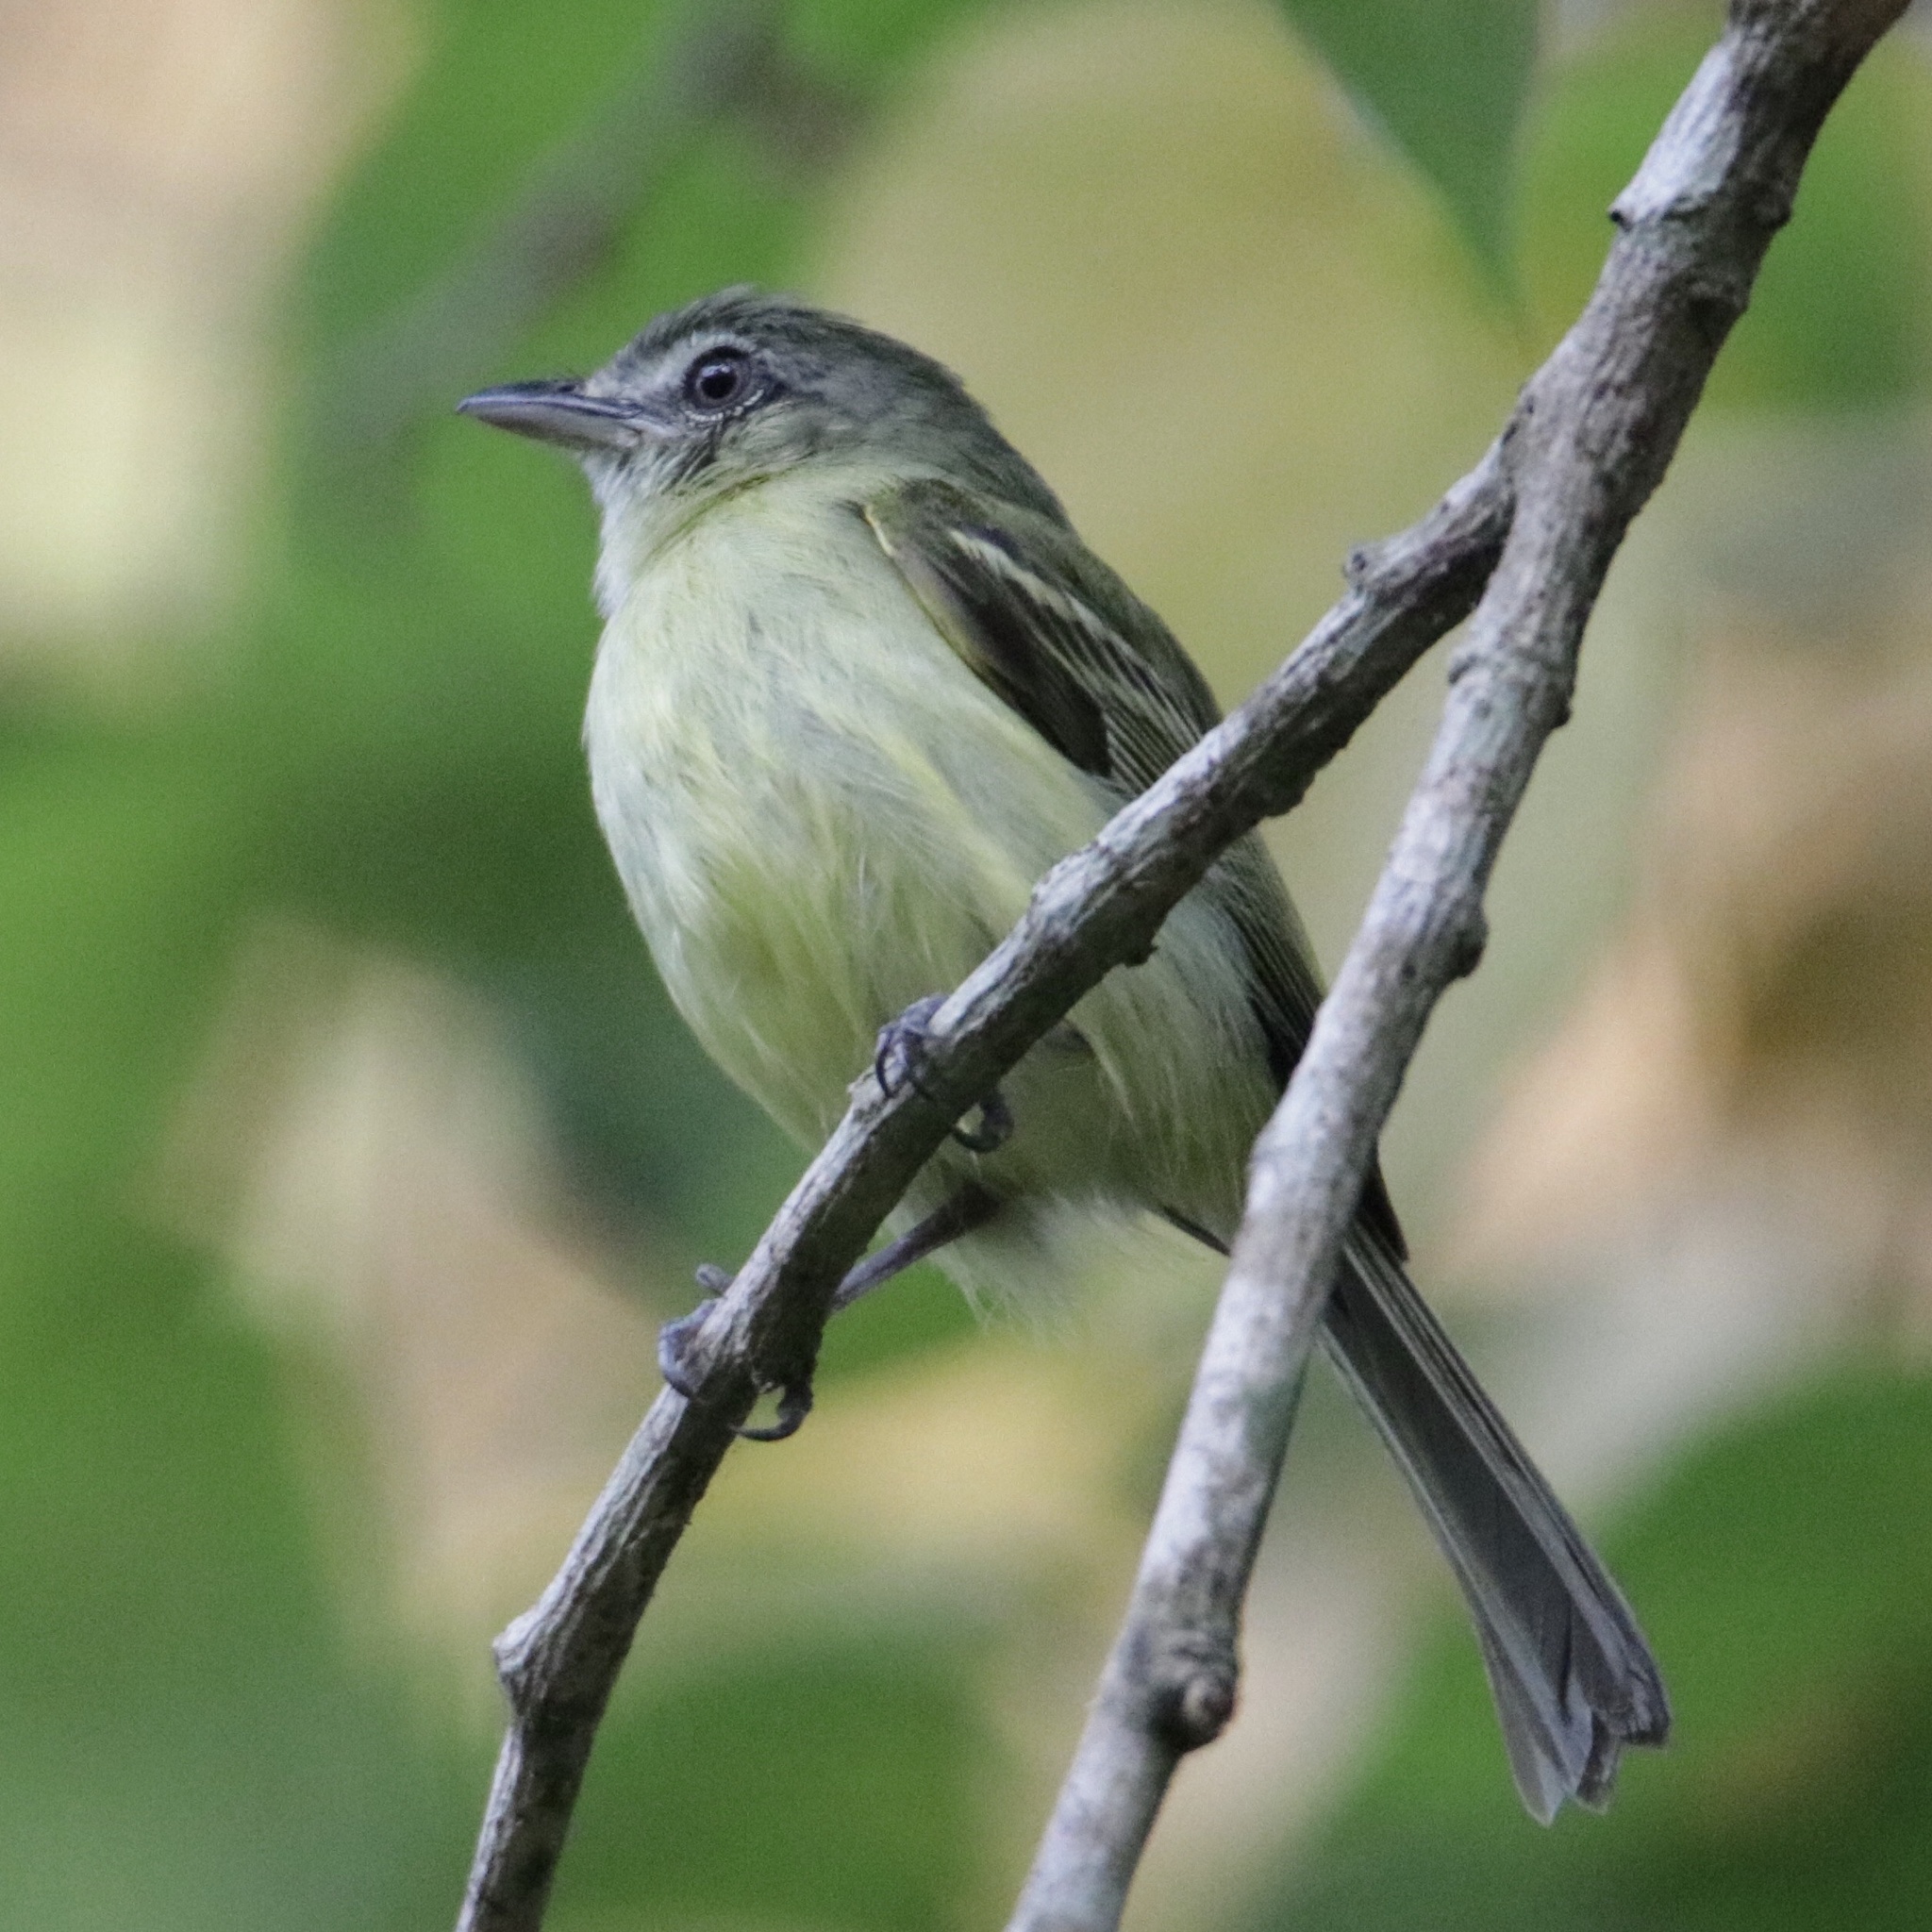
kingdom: Animalia
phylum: Chordata
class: Aves
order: Passeriformes
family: Tyrannidae
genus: Tolmomyias
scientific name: Tolmomyias sulphurescens
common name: Yellow-olive flycatcher
